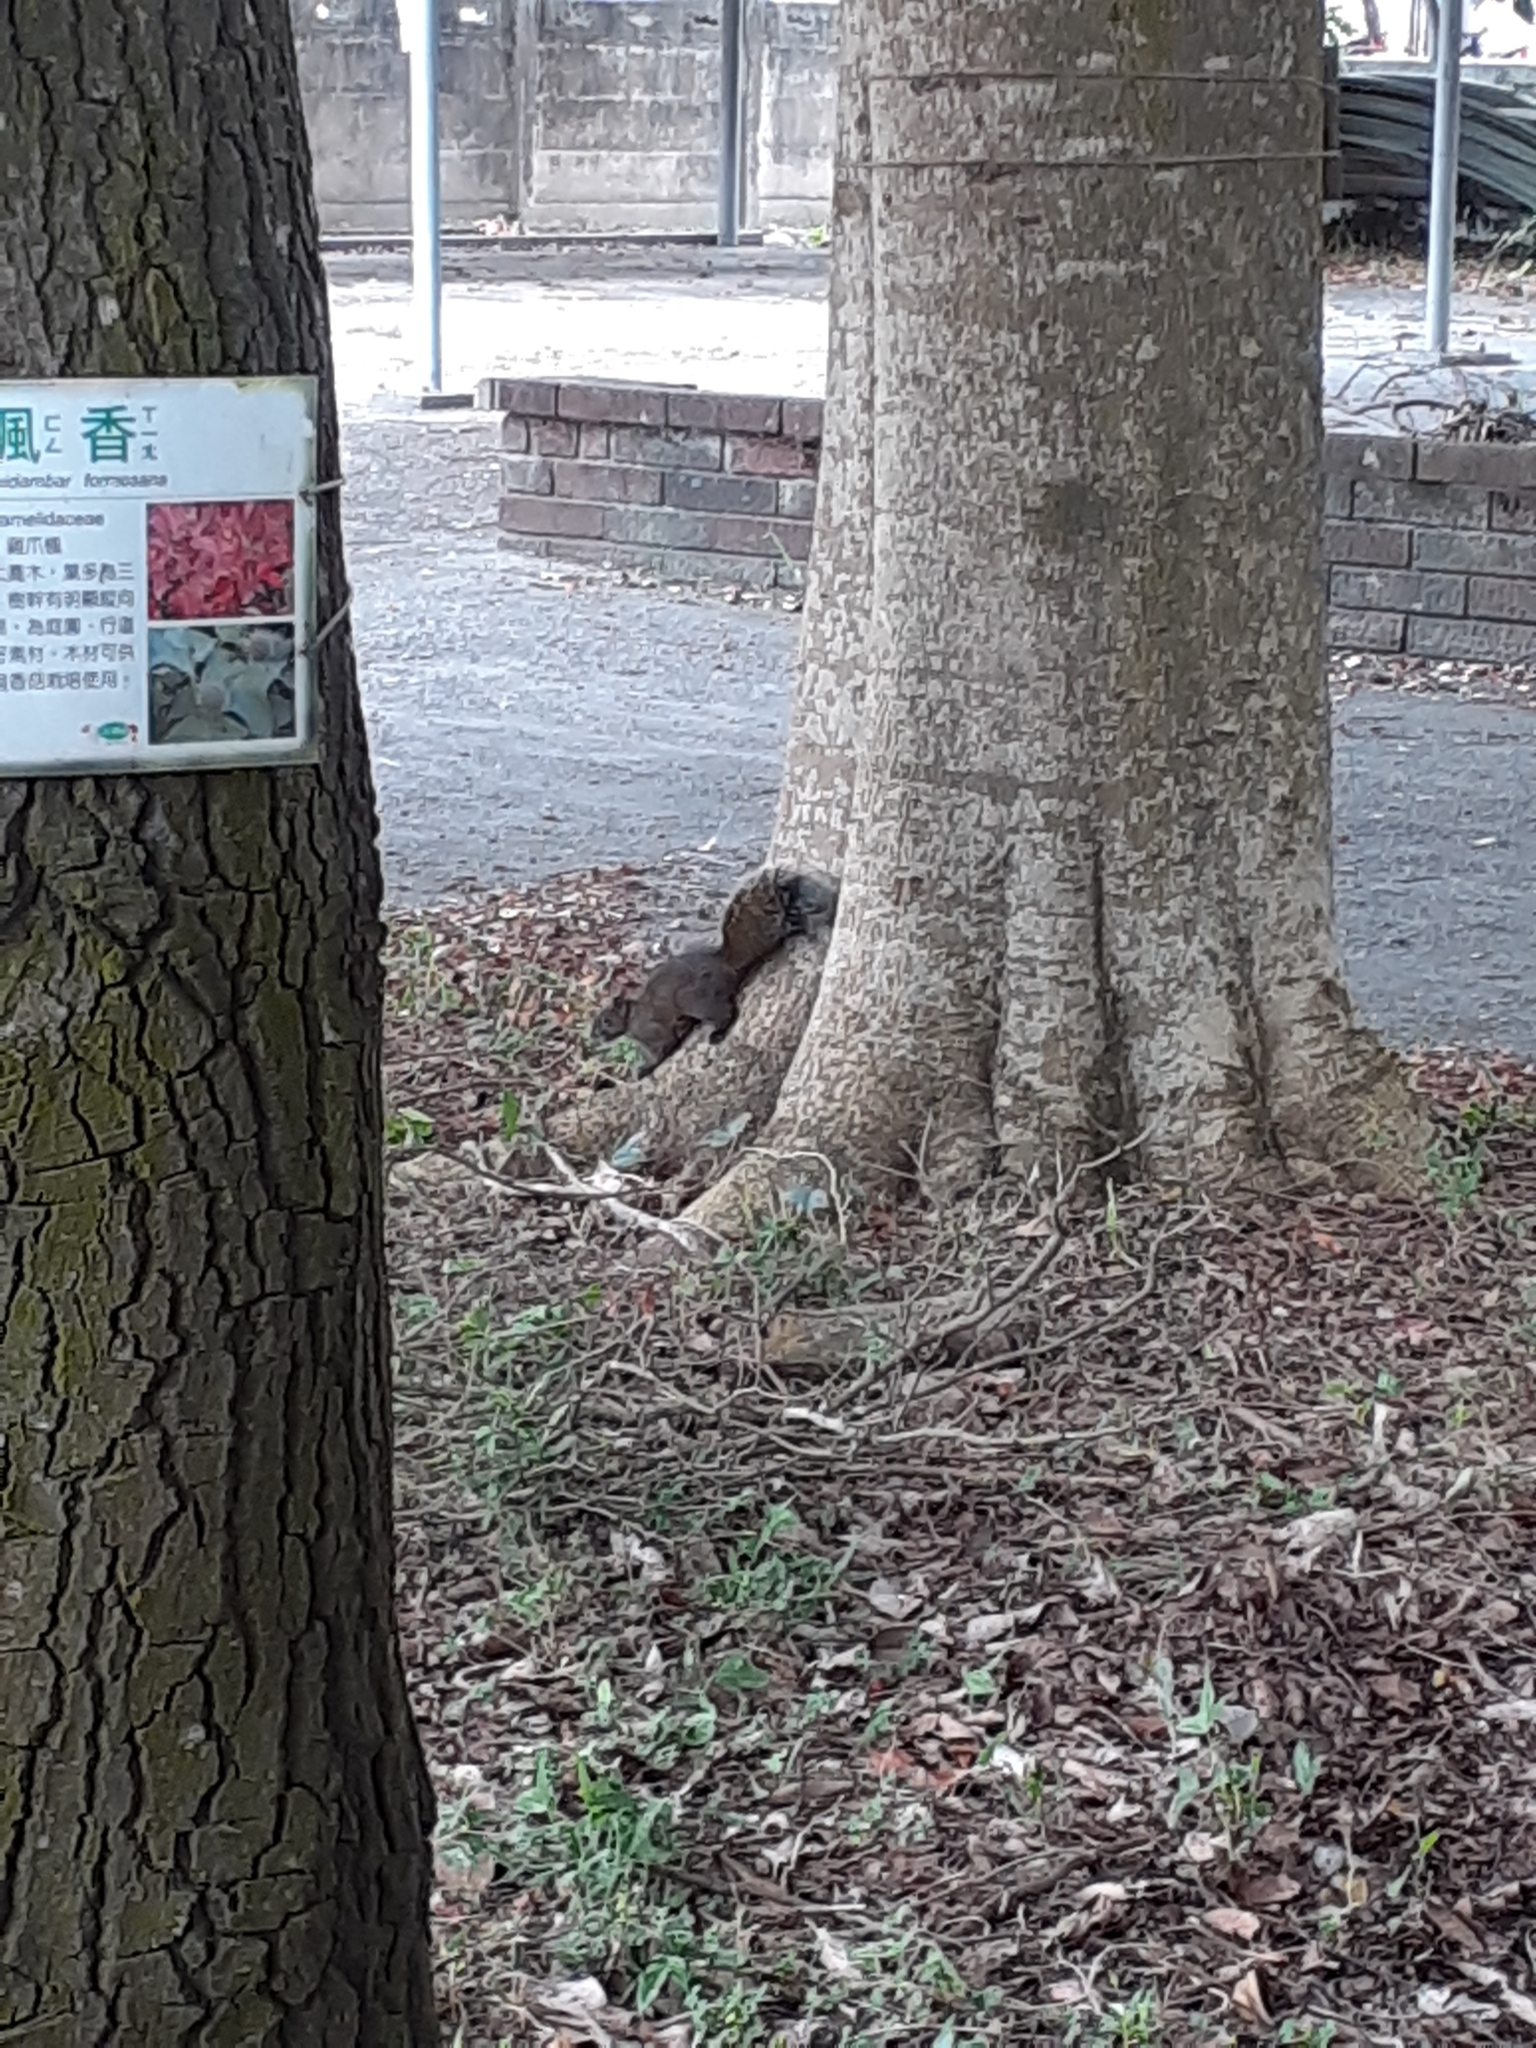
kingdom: Animalia
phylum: Chordata
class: Mammalia
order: Rodentia
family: Sciuridae
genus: Callosciurus
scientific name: Callosciurus erythraeus
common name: Pallas's squirrel
